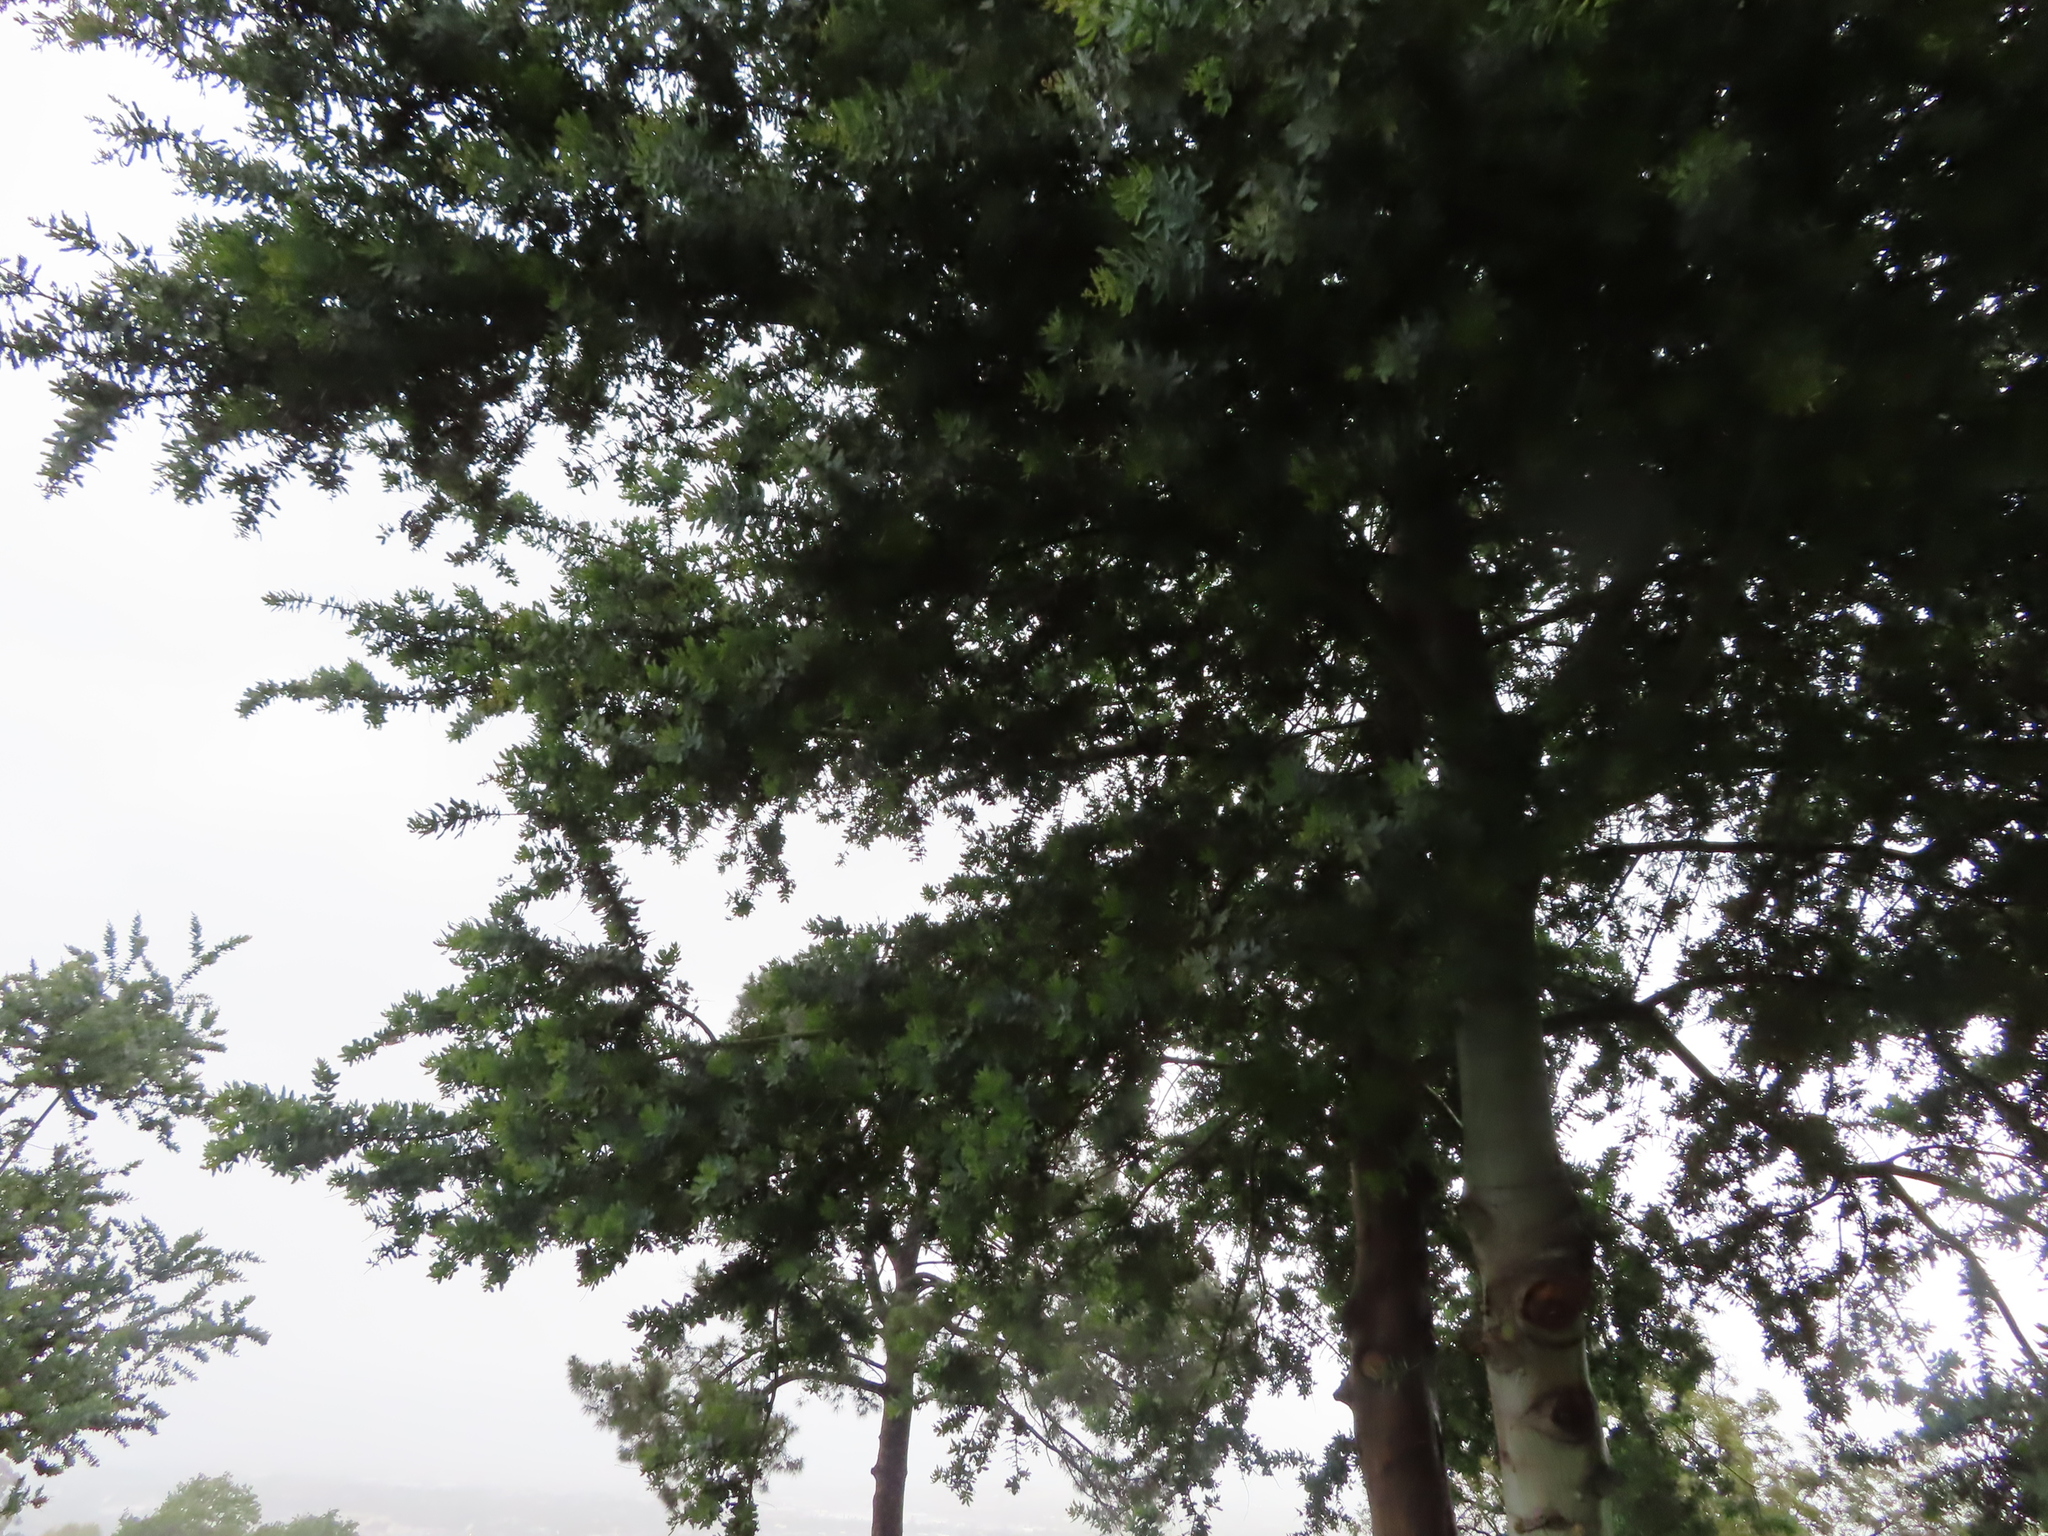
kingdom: Plantae
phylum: Tracheophyta
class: Magnoliopsida
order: Fabales
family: Fabaceae
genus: Acacia
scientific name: Acacia baileyana
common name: Cootamundra wattle
